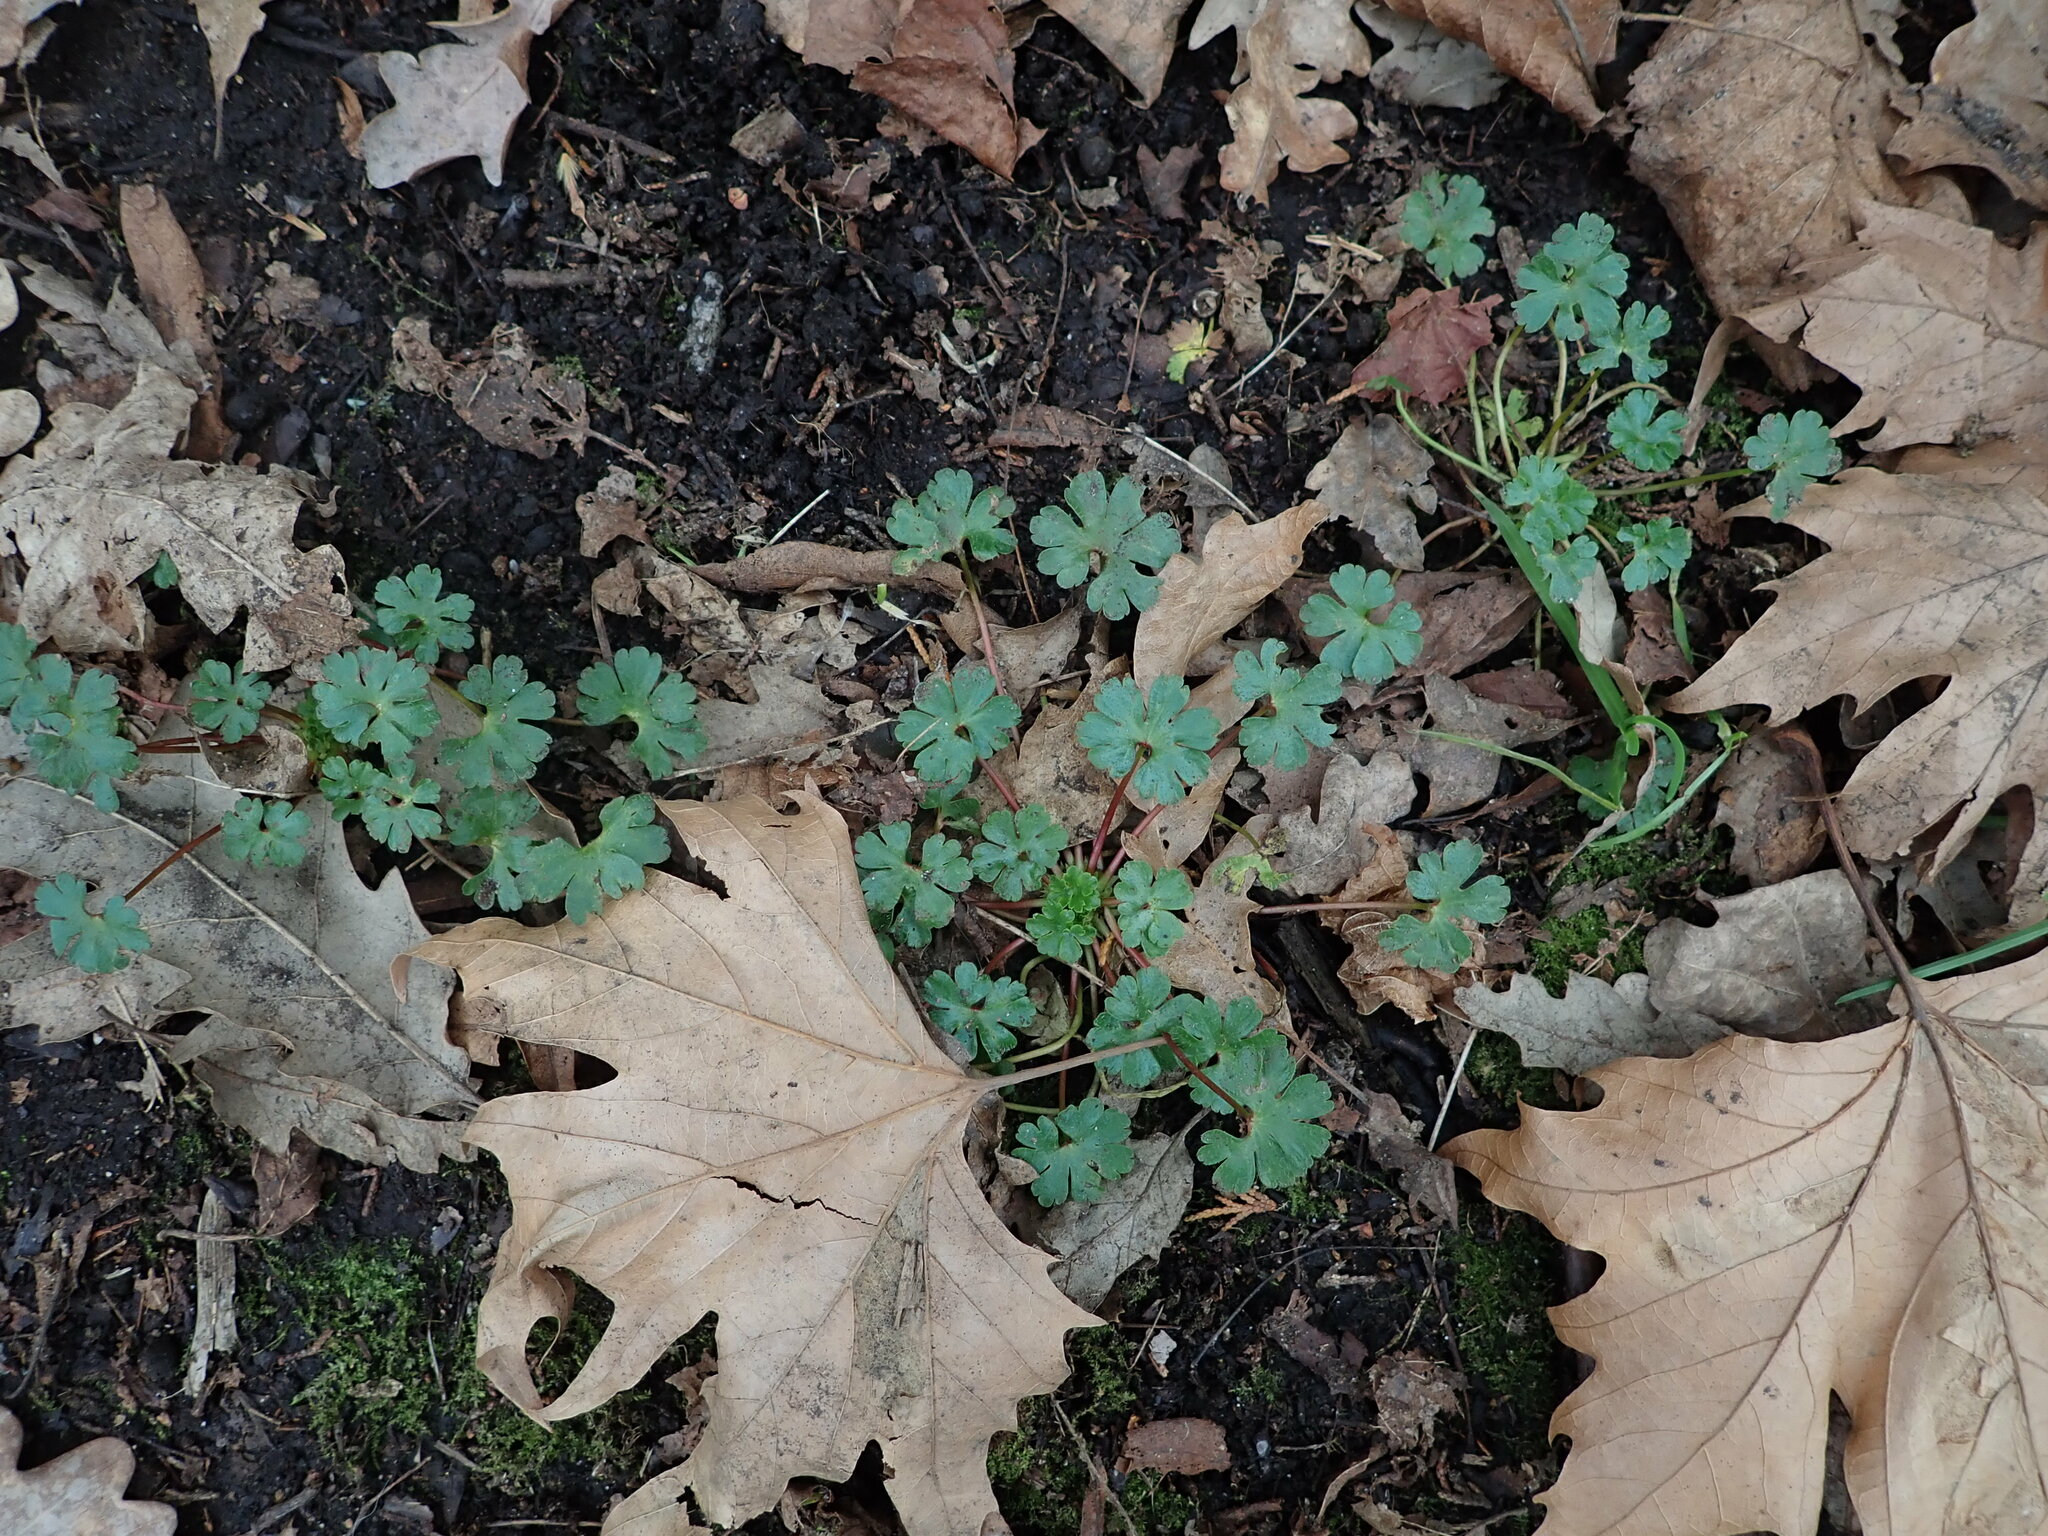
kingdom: Plantae
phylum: Tracheophyta
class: Magnoliopsida
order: Geraniales
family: Geraniaceae
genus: Geranium
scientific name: Geranium lucidum
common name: Shining crane's-bill
